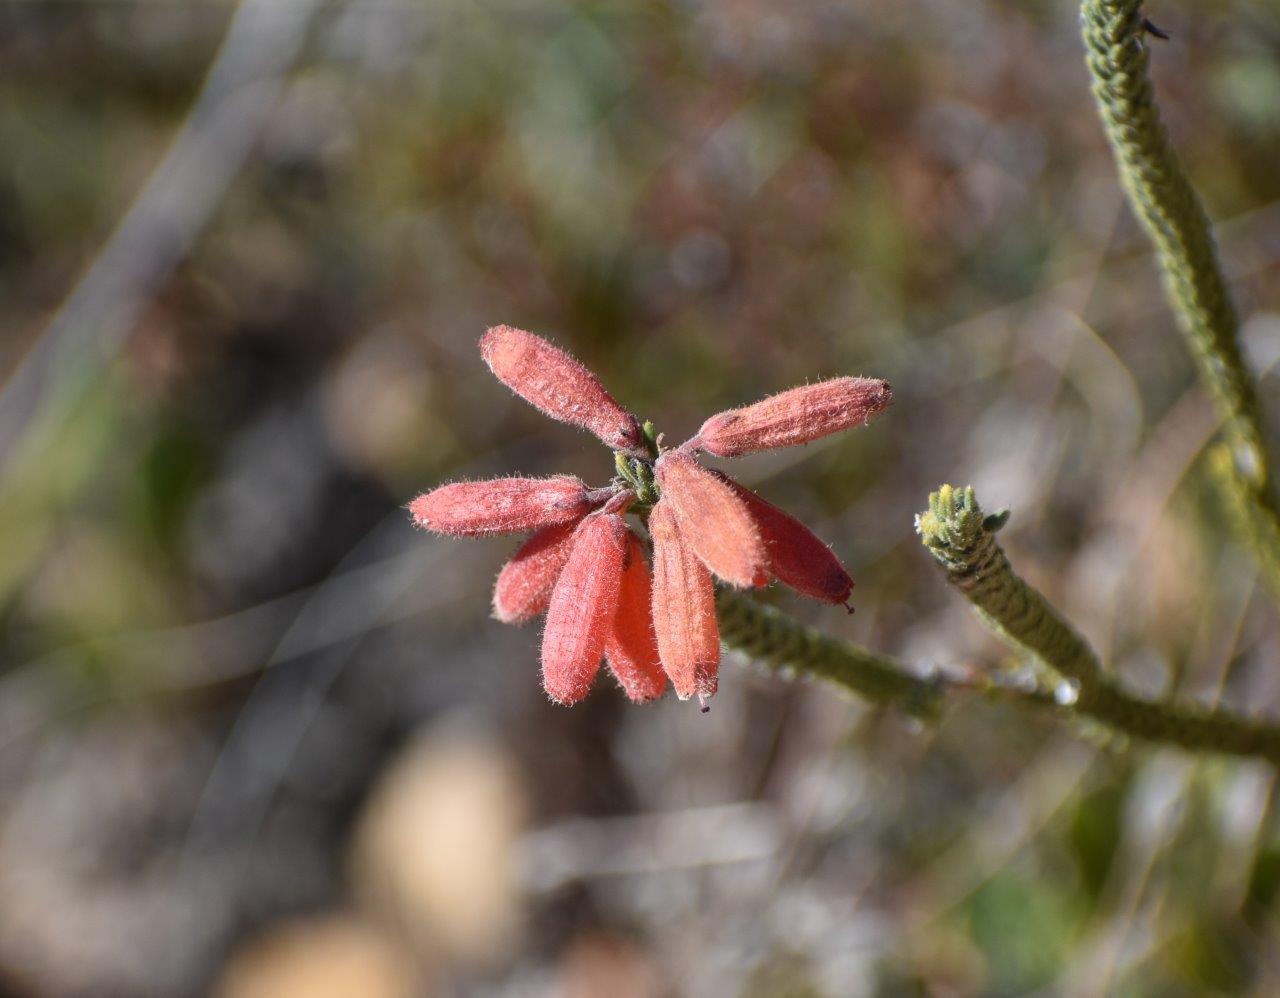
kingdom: Plantae
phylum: Tracheophyta
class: Magnoliopsida
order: Ericales
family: Ericaceae
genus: Erica
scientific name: Erica cerinthoides
